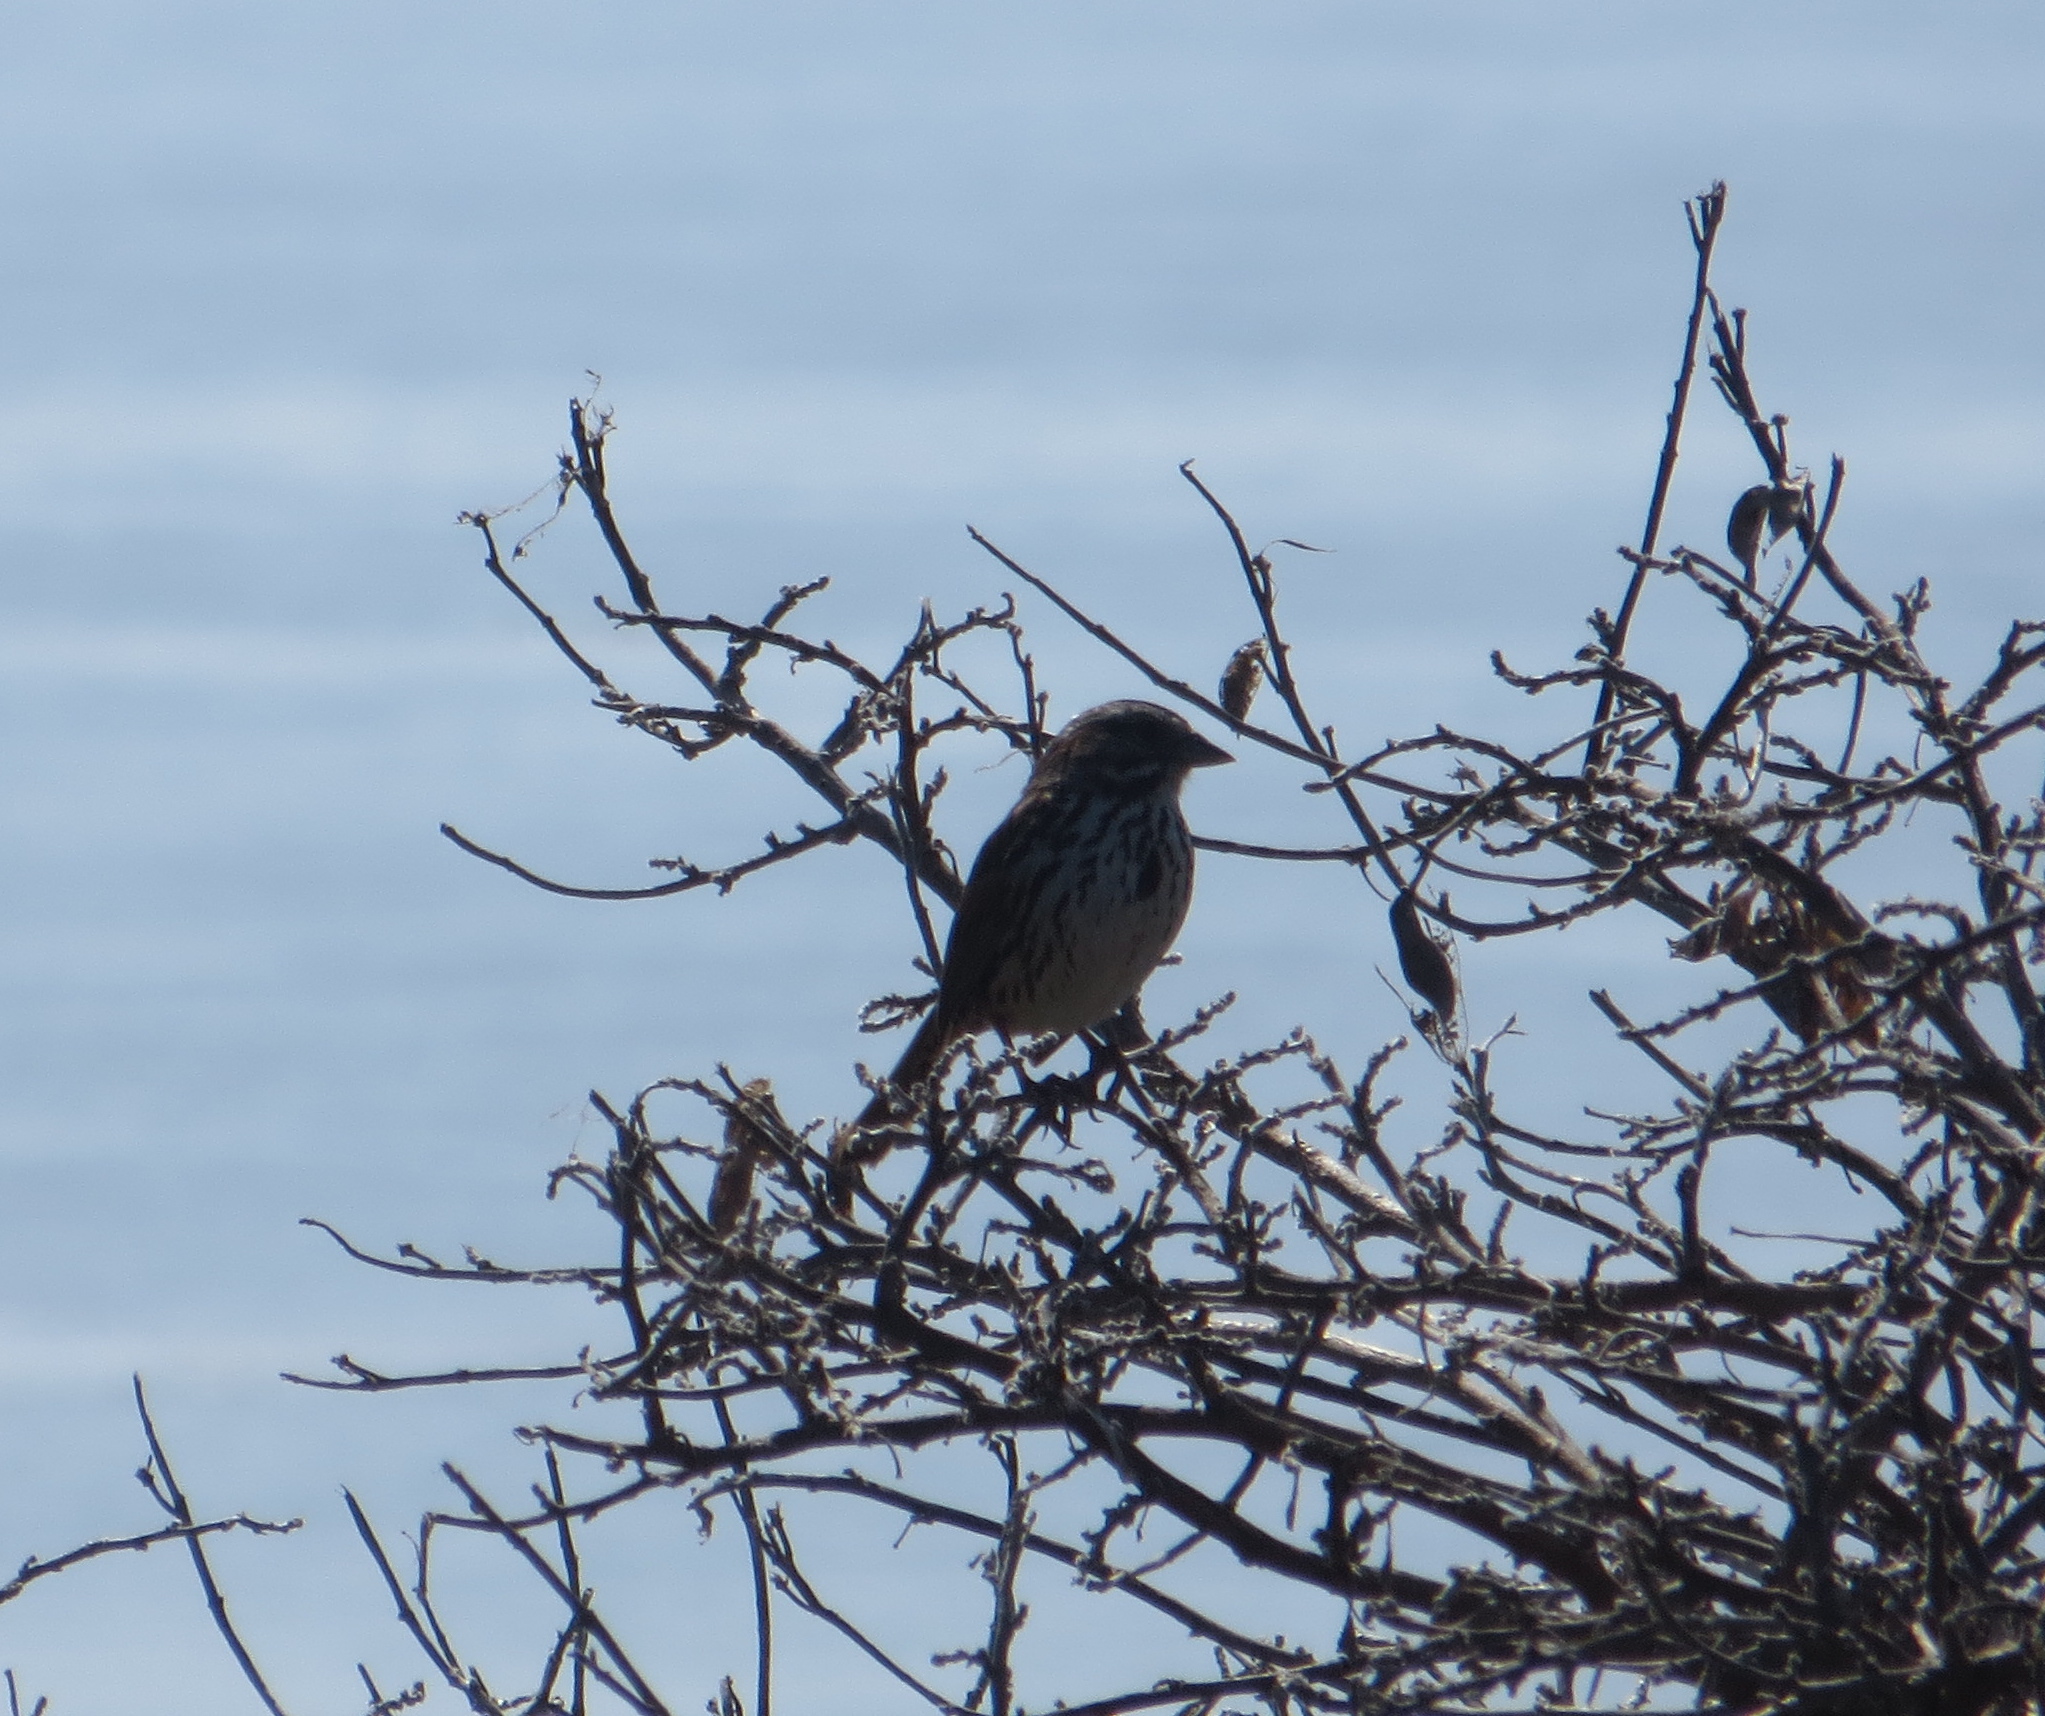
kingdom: Animalia
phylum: Chordata
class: Aves
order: Passeriformes
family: Passerellidae
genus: Melospiza
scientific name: Melospiza melodia
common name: Song sparrow
